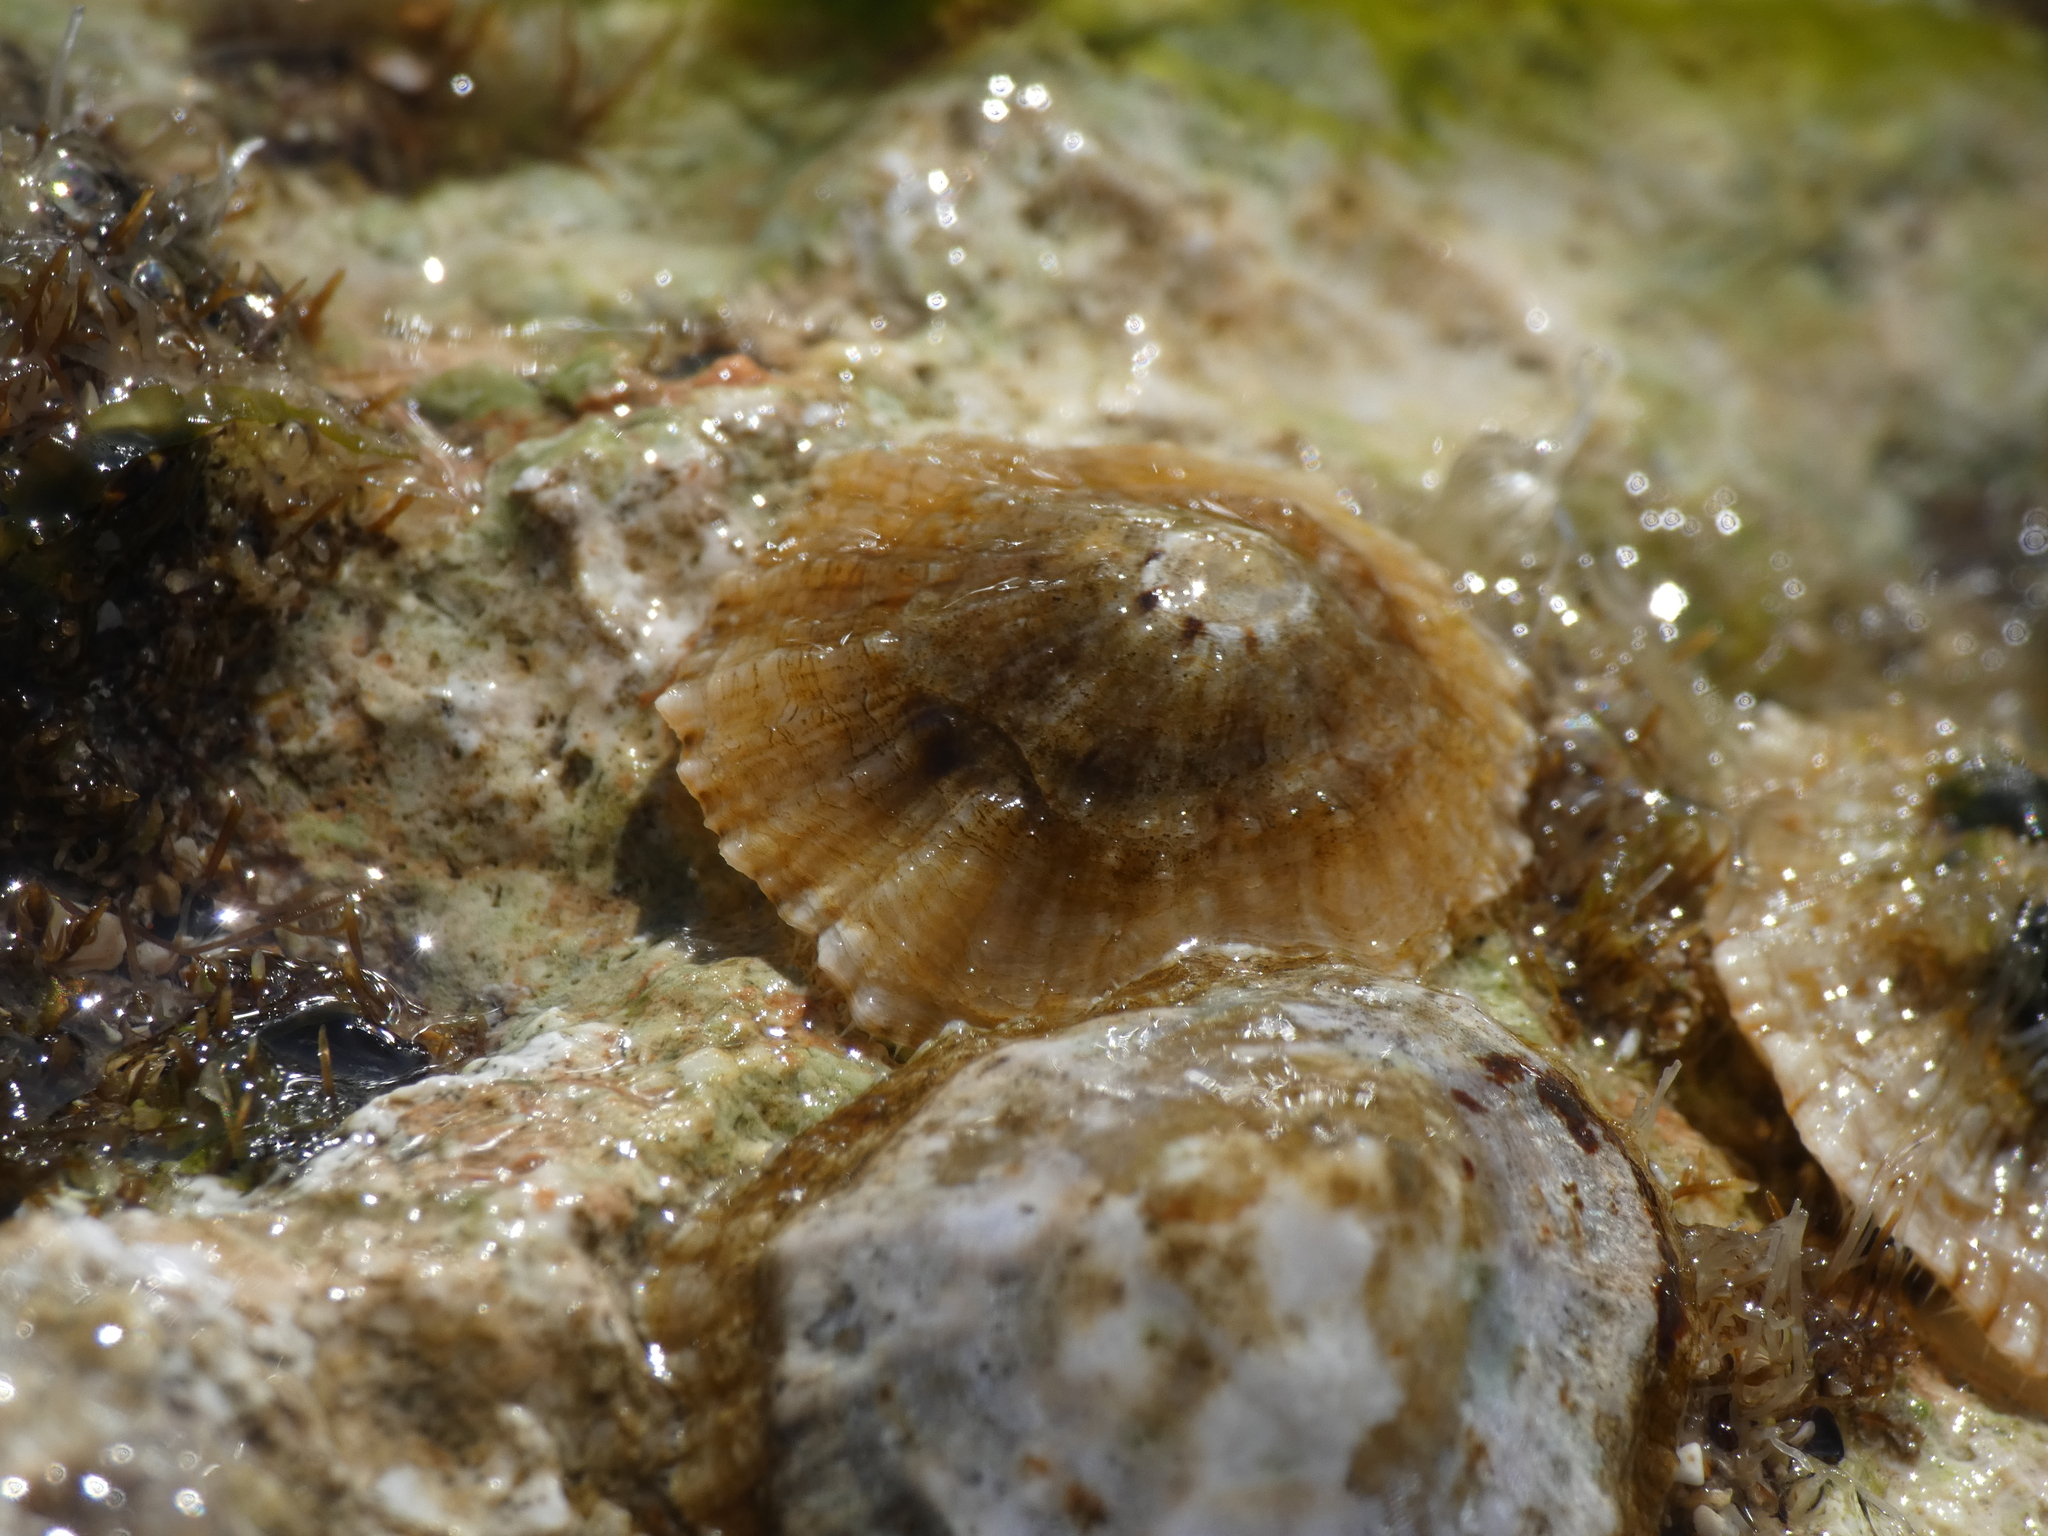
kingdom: Animalia
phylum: Mollusca
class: Gastropoda
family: Patellidae
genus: Patella
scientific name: Patella caerulea
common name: Mediterranean limpet
